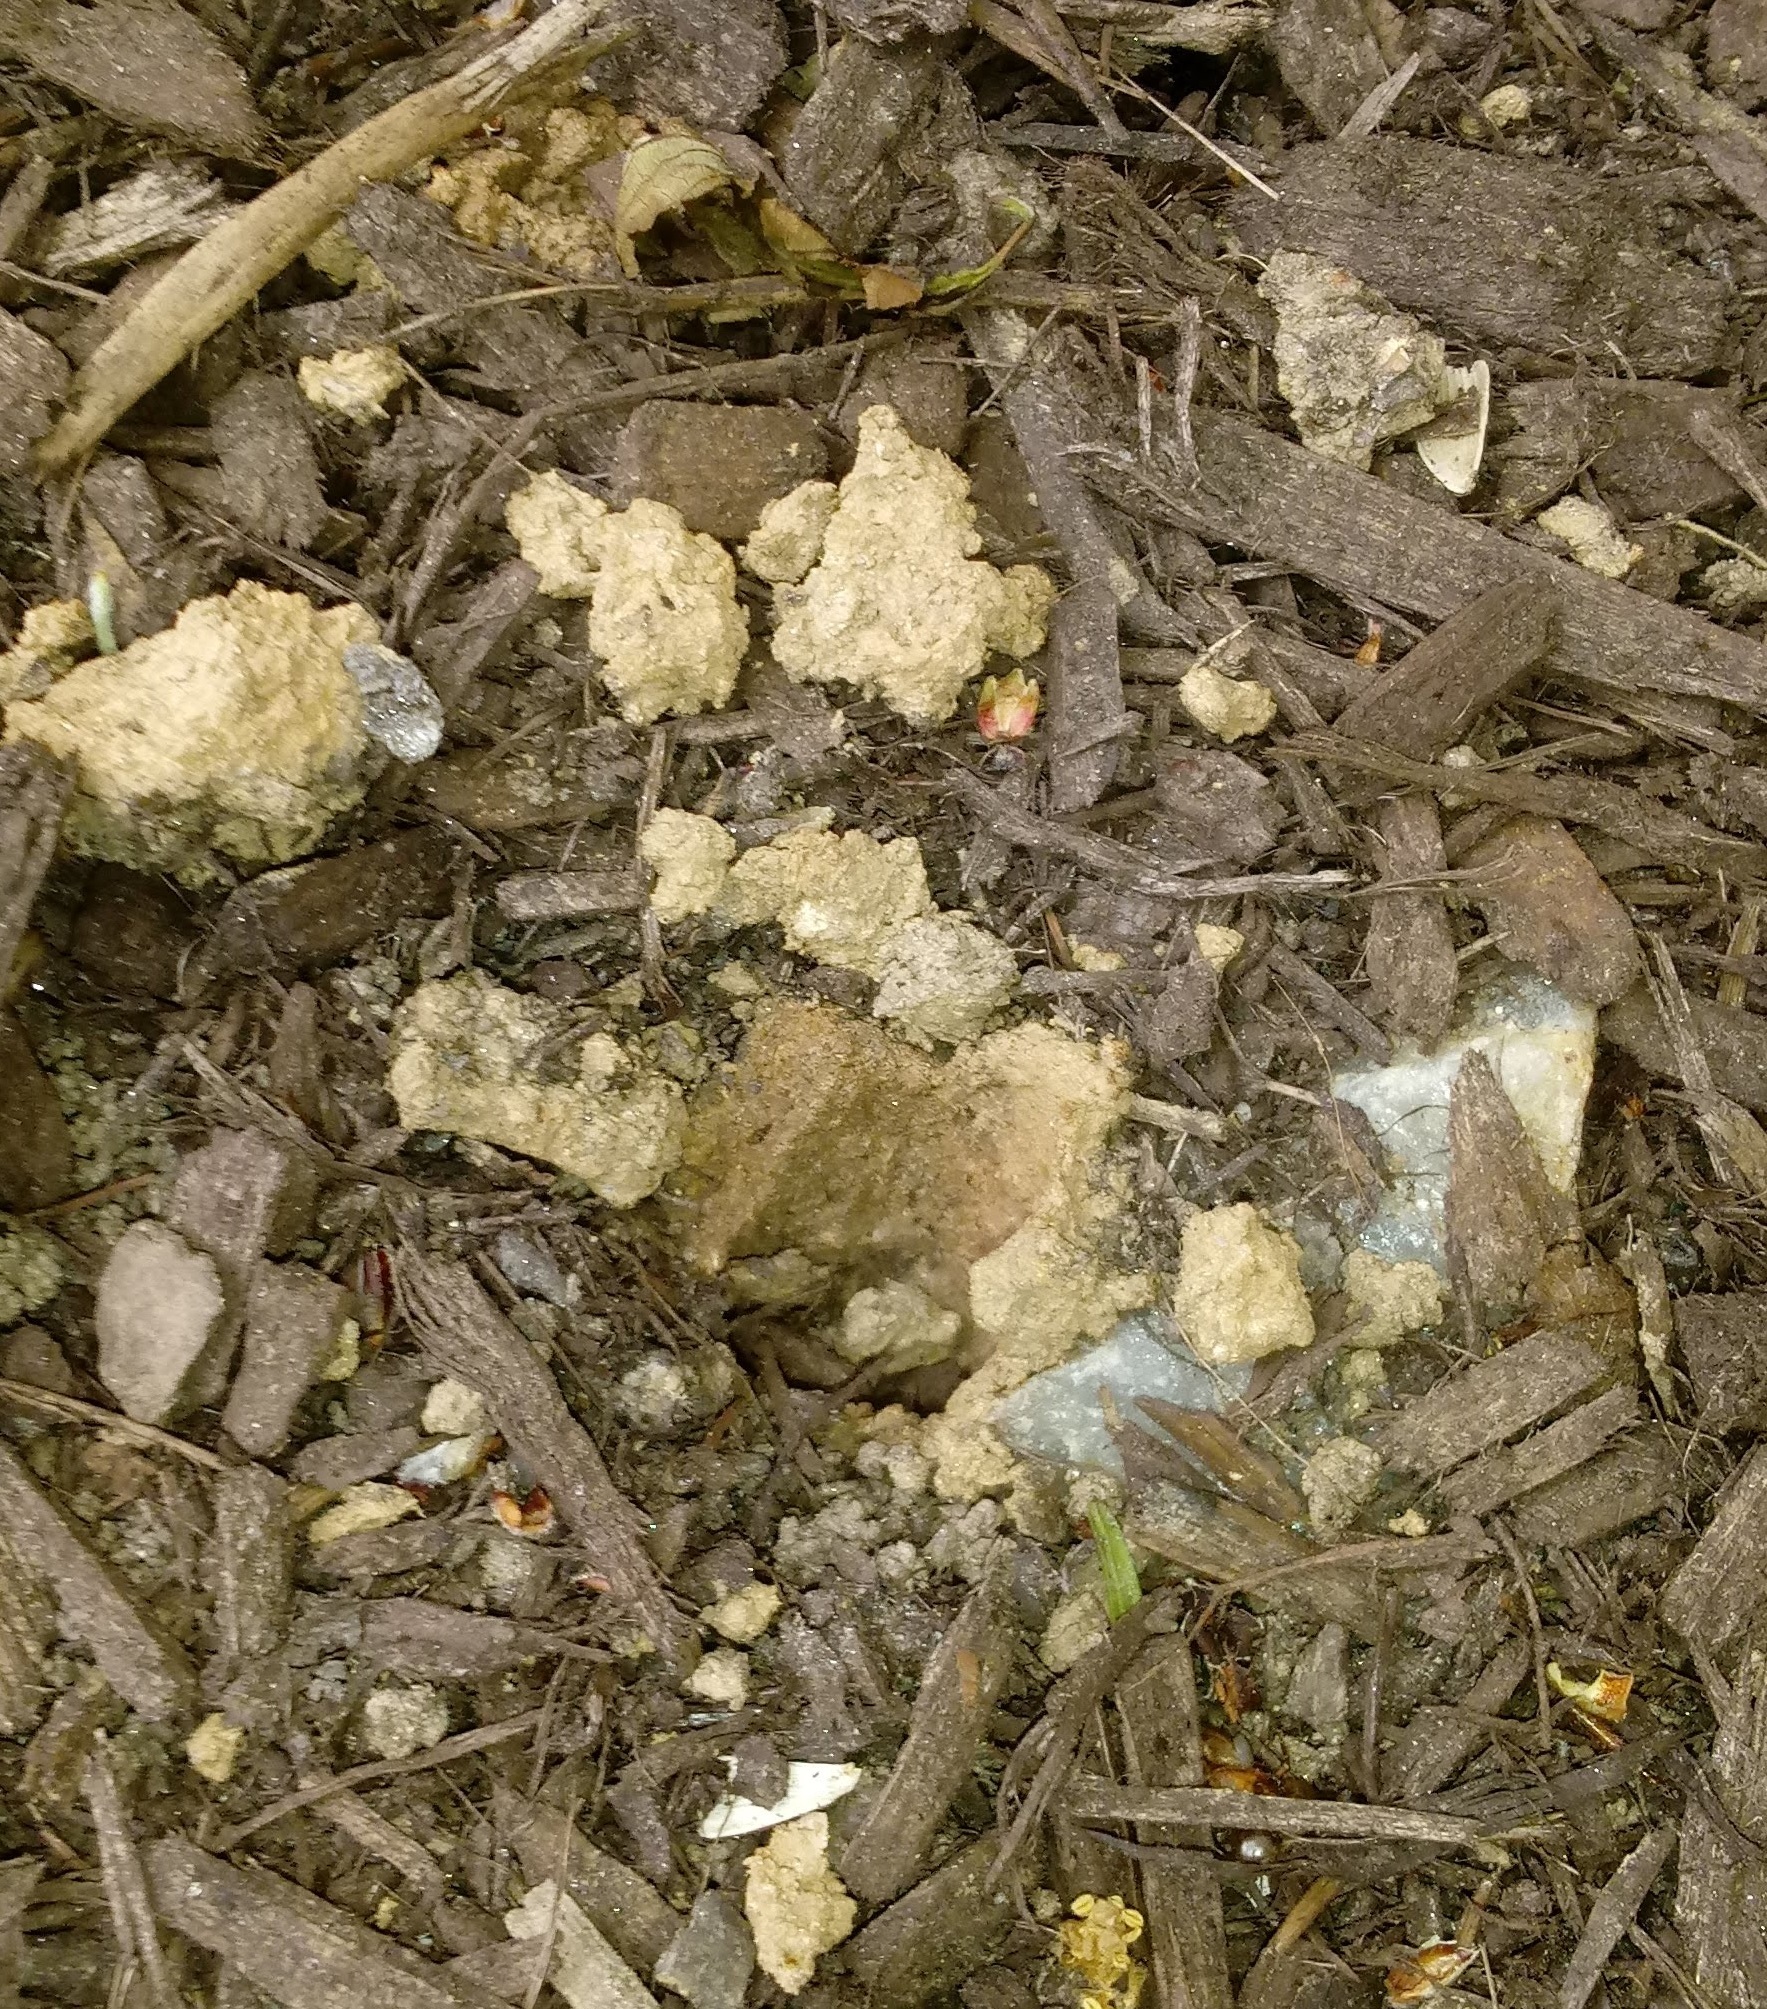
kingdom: Animalia
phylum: Arthropoda
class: Insecta
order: Hemiptera
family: Cicadidae
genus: Magicicada
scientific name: Magicicada
